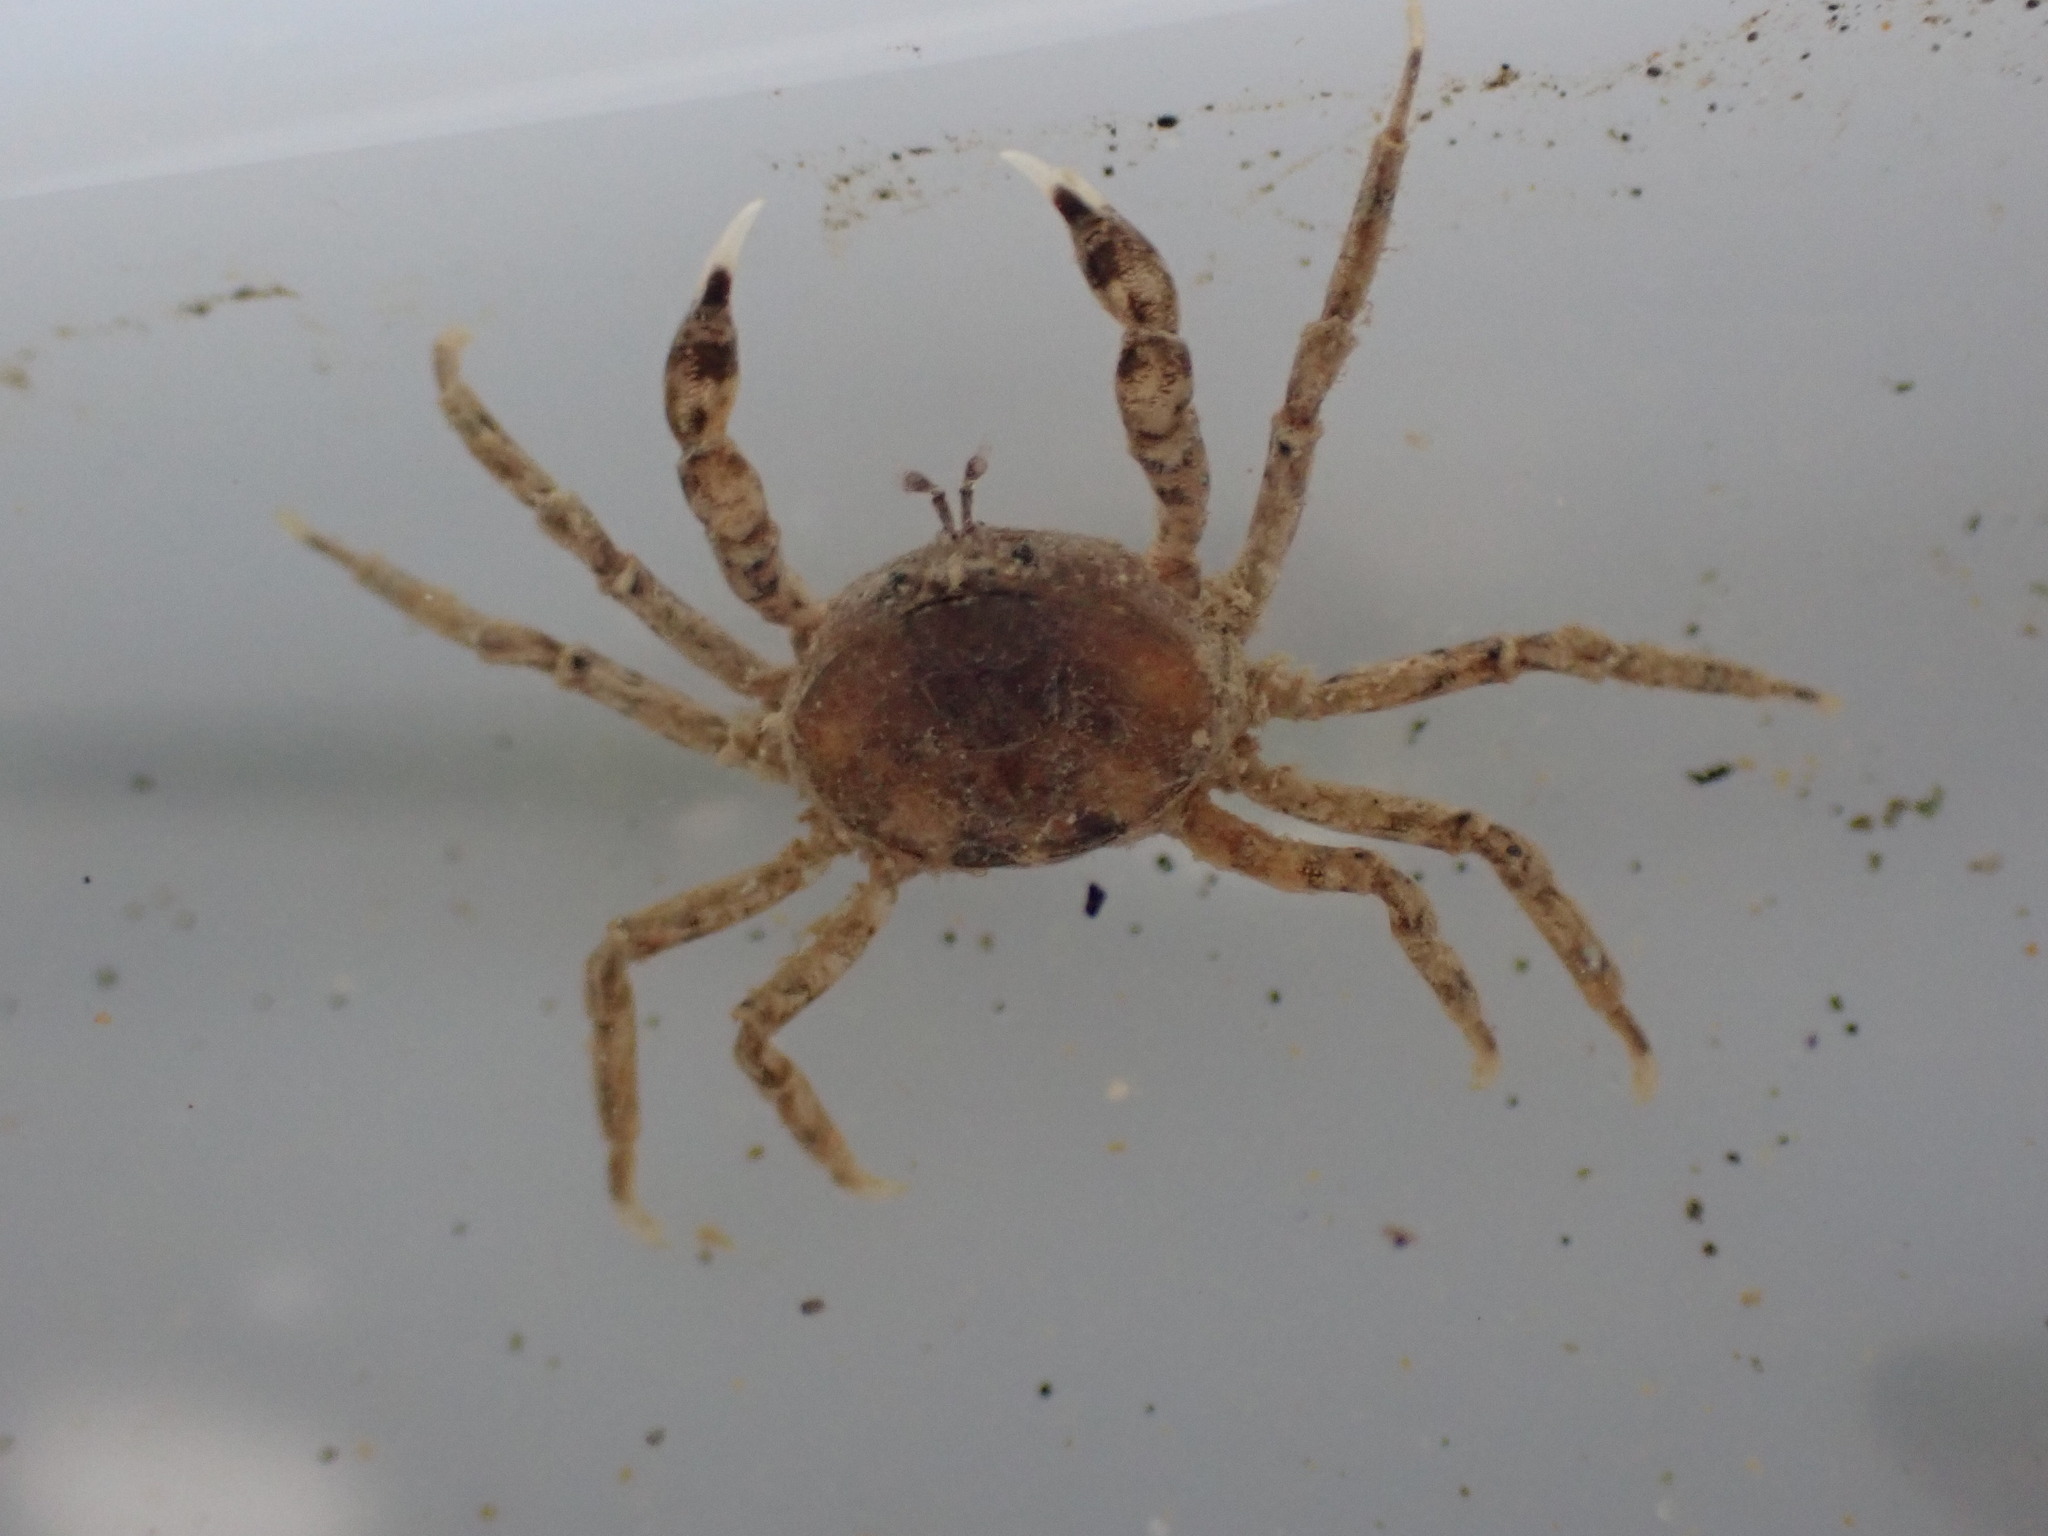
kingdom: Animalia
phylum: Arthropoda
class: Malacostraca
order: Decapoda
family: Hymenosomatidae
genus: Halicarcinus
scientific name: Halicarcinus quoyi
